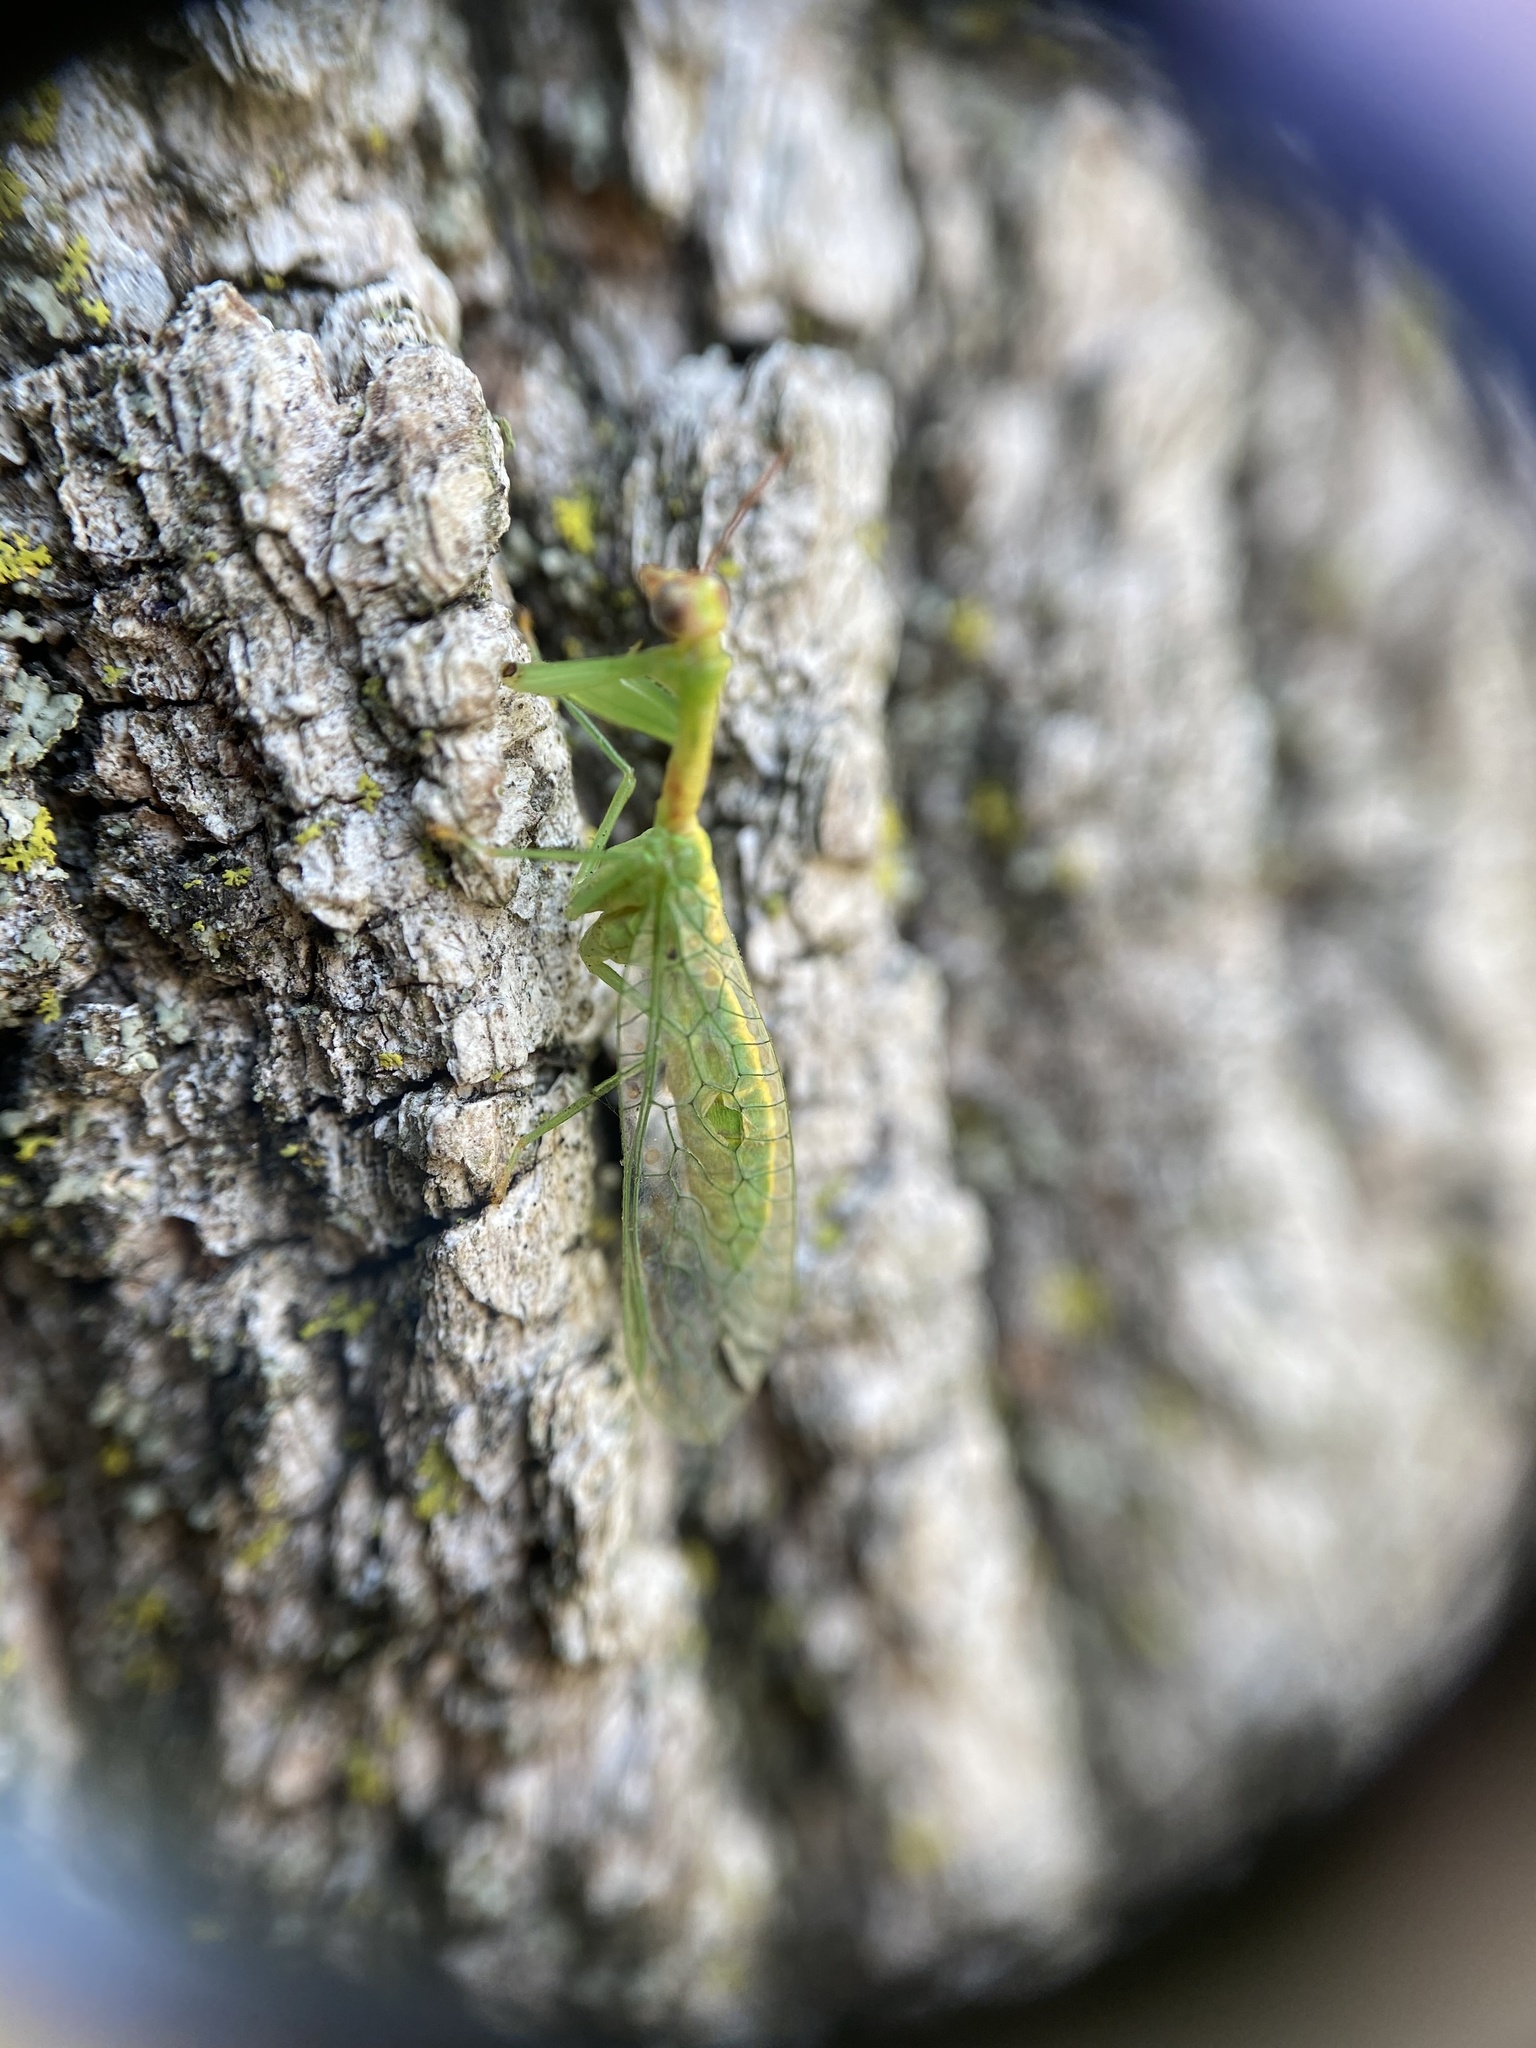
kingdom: Animalia
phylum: Arthropoda
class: Insecta
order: Neuroptera
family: Mantispidae
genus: Zeugomantispa
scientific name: Zeugomantispa minuta
